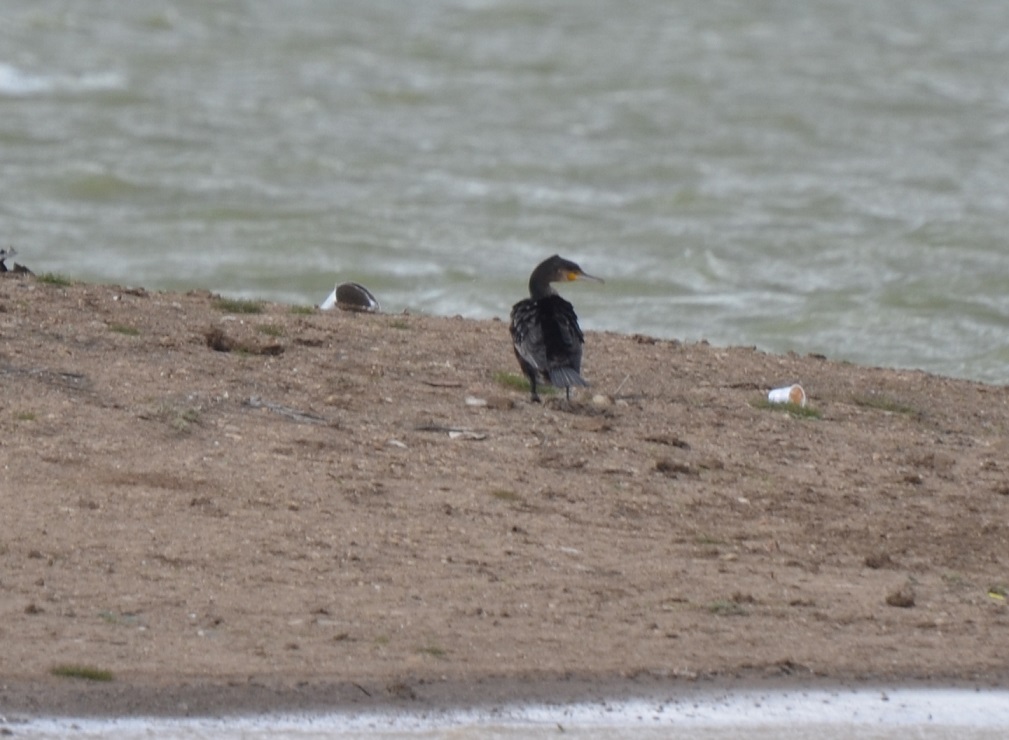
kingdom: Animalia
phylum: Chordata
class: Aves
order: Suliformes
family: Phalacrocoracidae
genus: Phalacrocorax
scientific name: Phalacrocorax carbo
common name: Great cormorant
